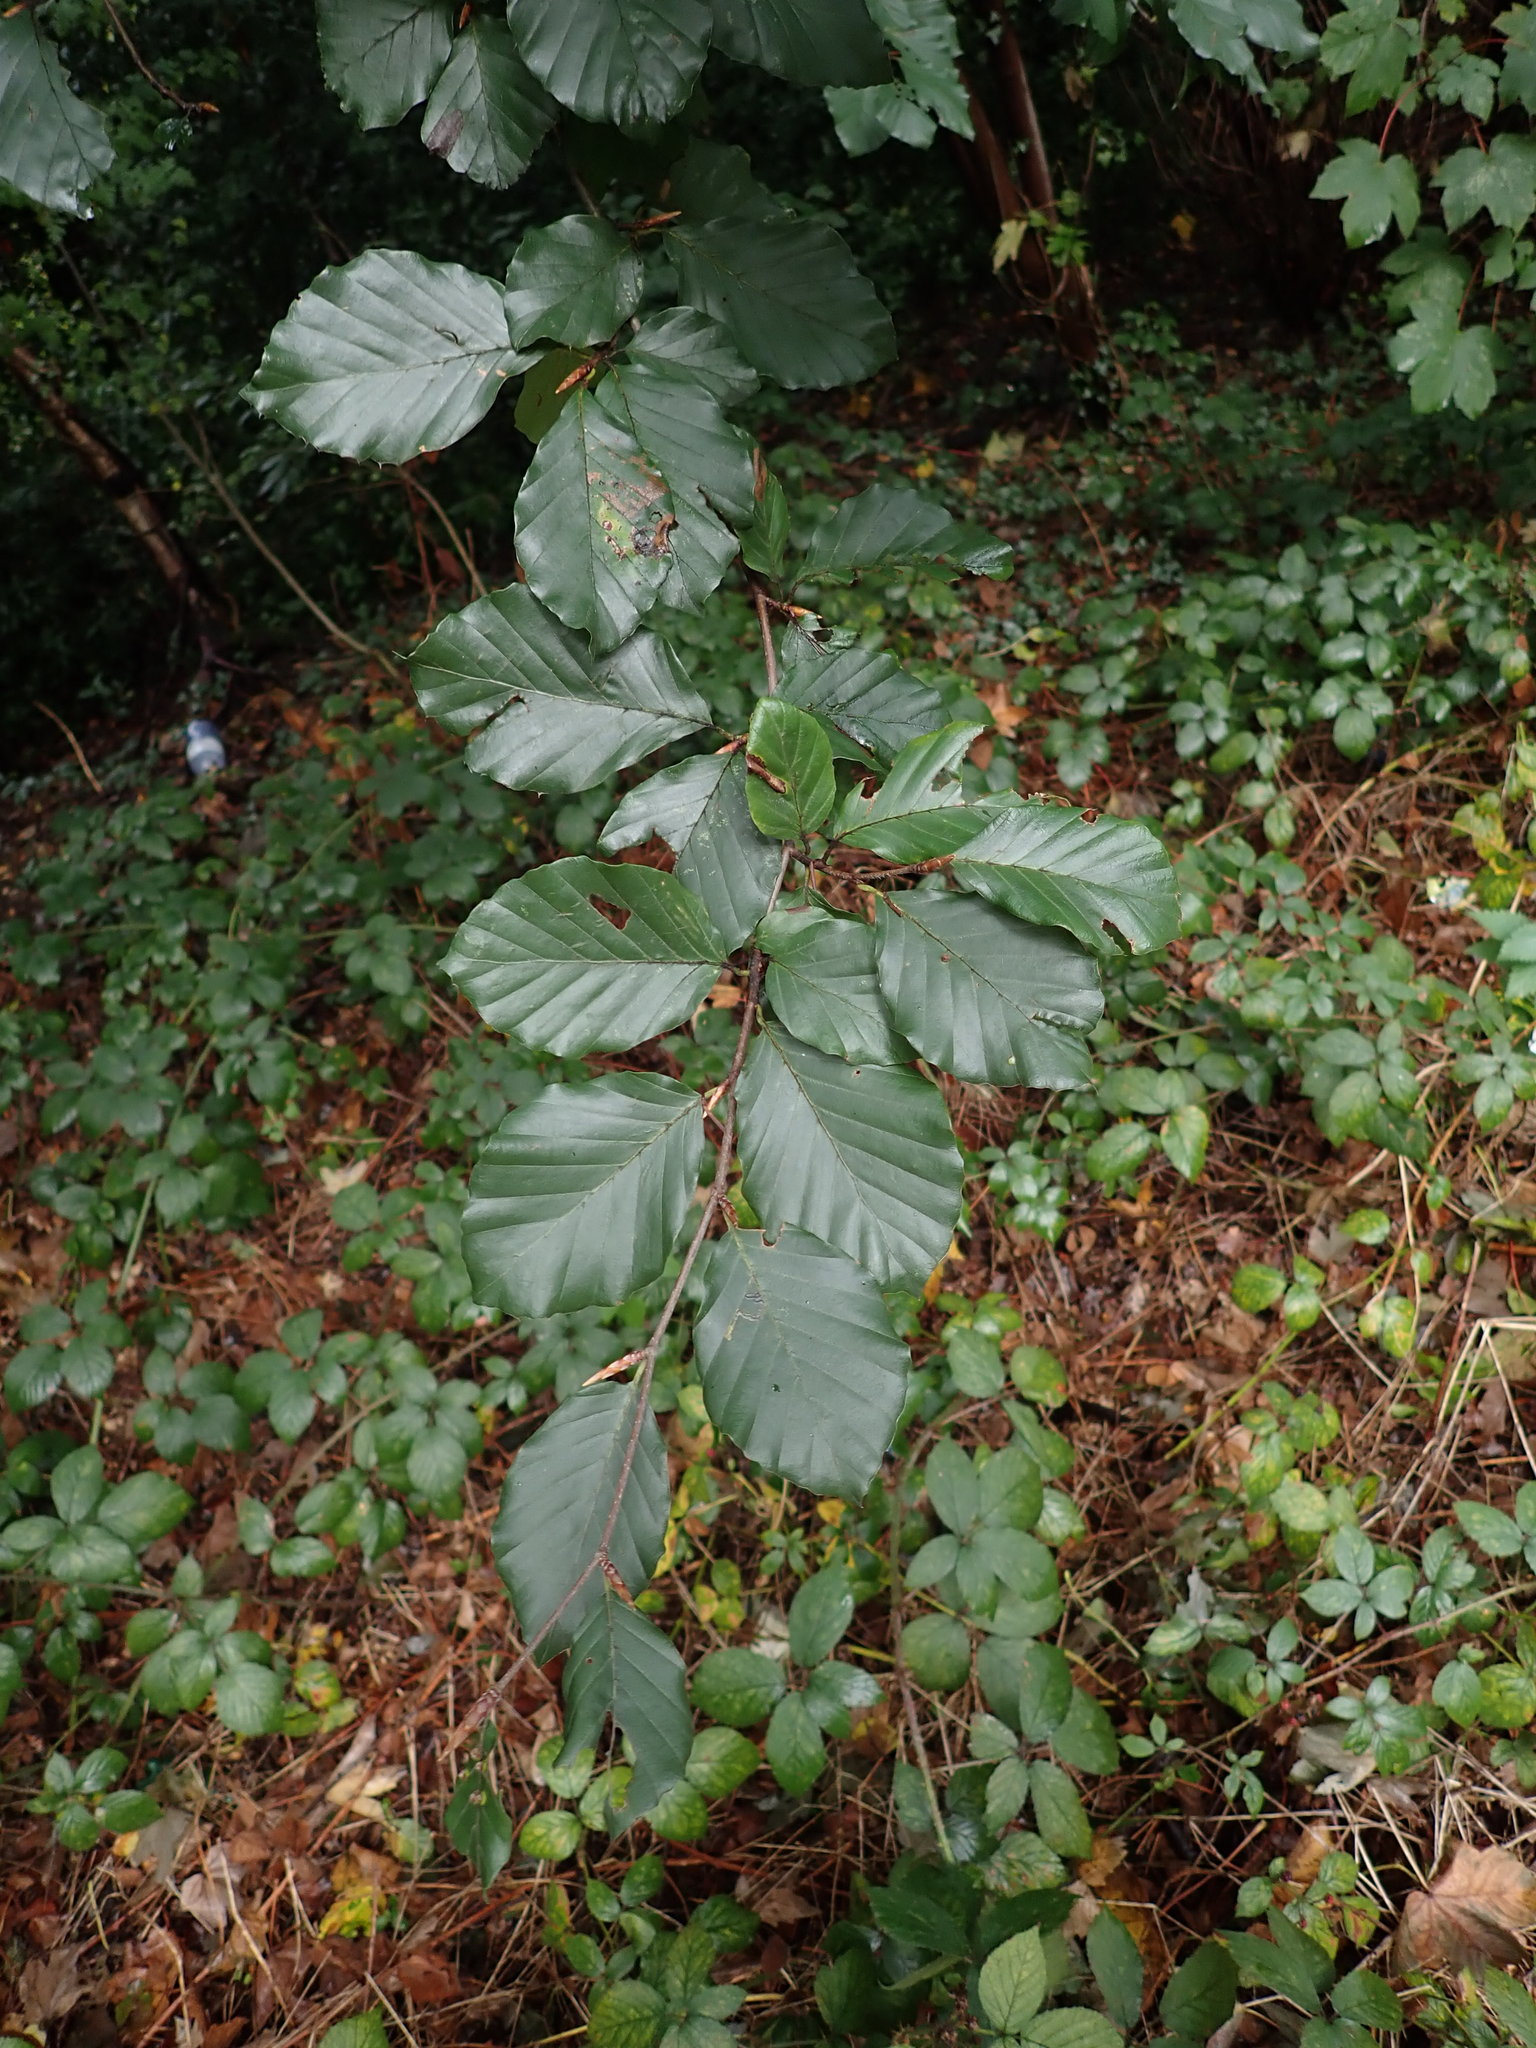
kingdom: Plantae
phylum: Tracheophyta
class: Magnoliopsida
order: Fagales
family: Fagaceae
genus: Fagus
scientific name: Fagus sylvatica
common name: Beech
